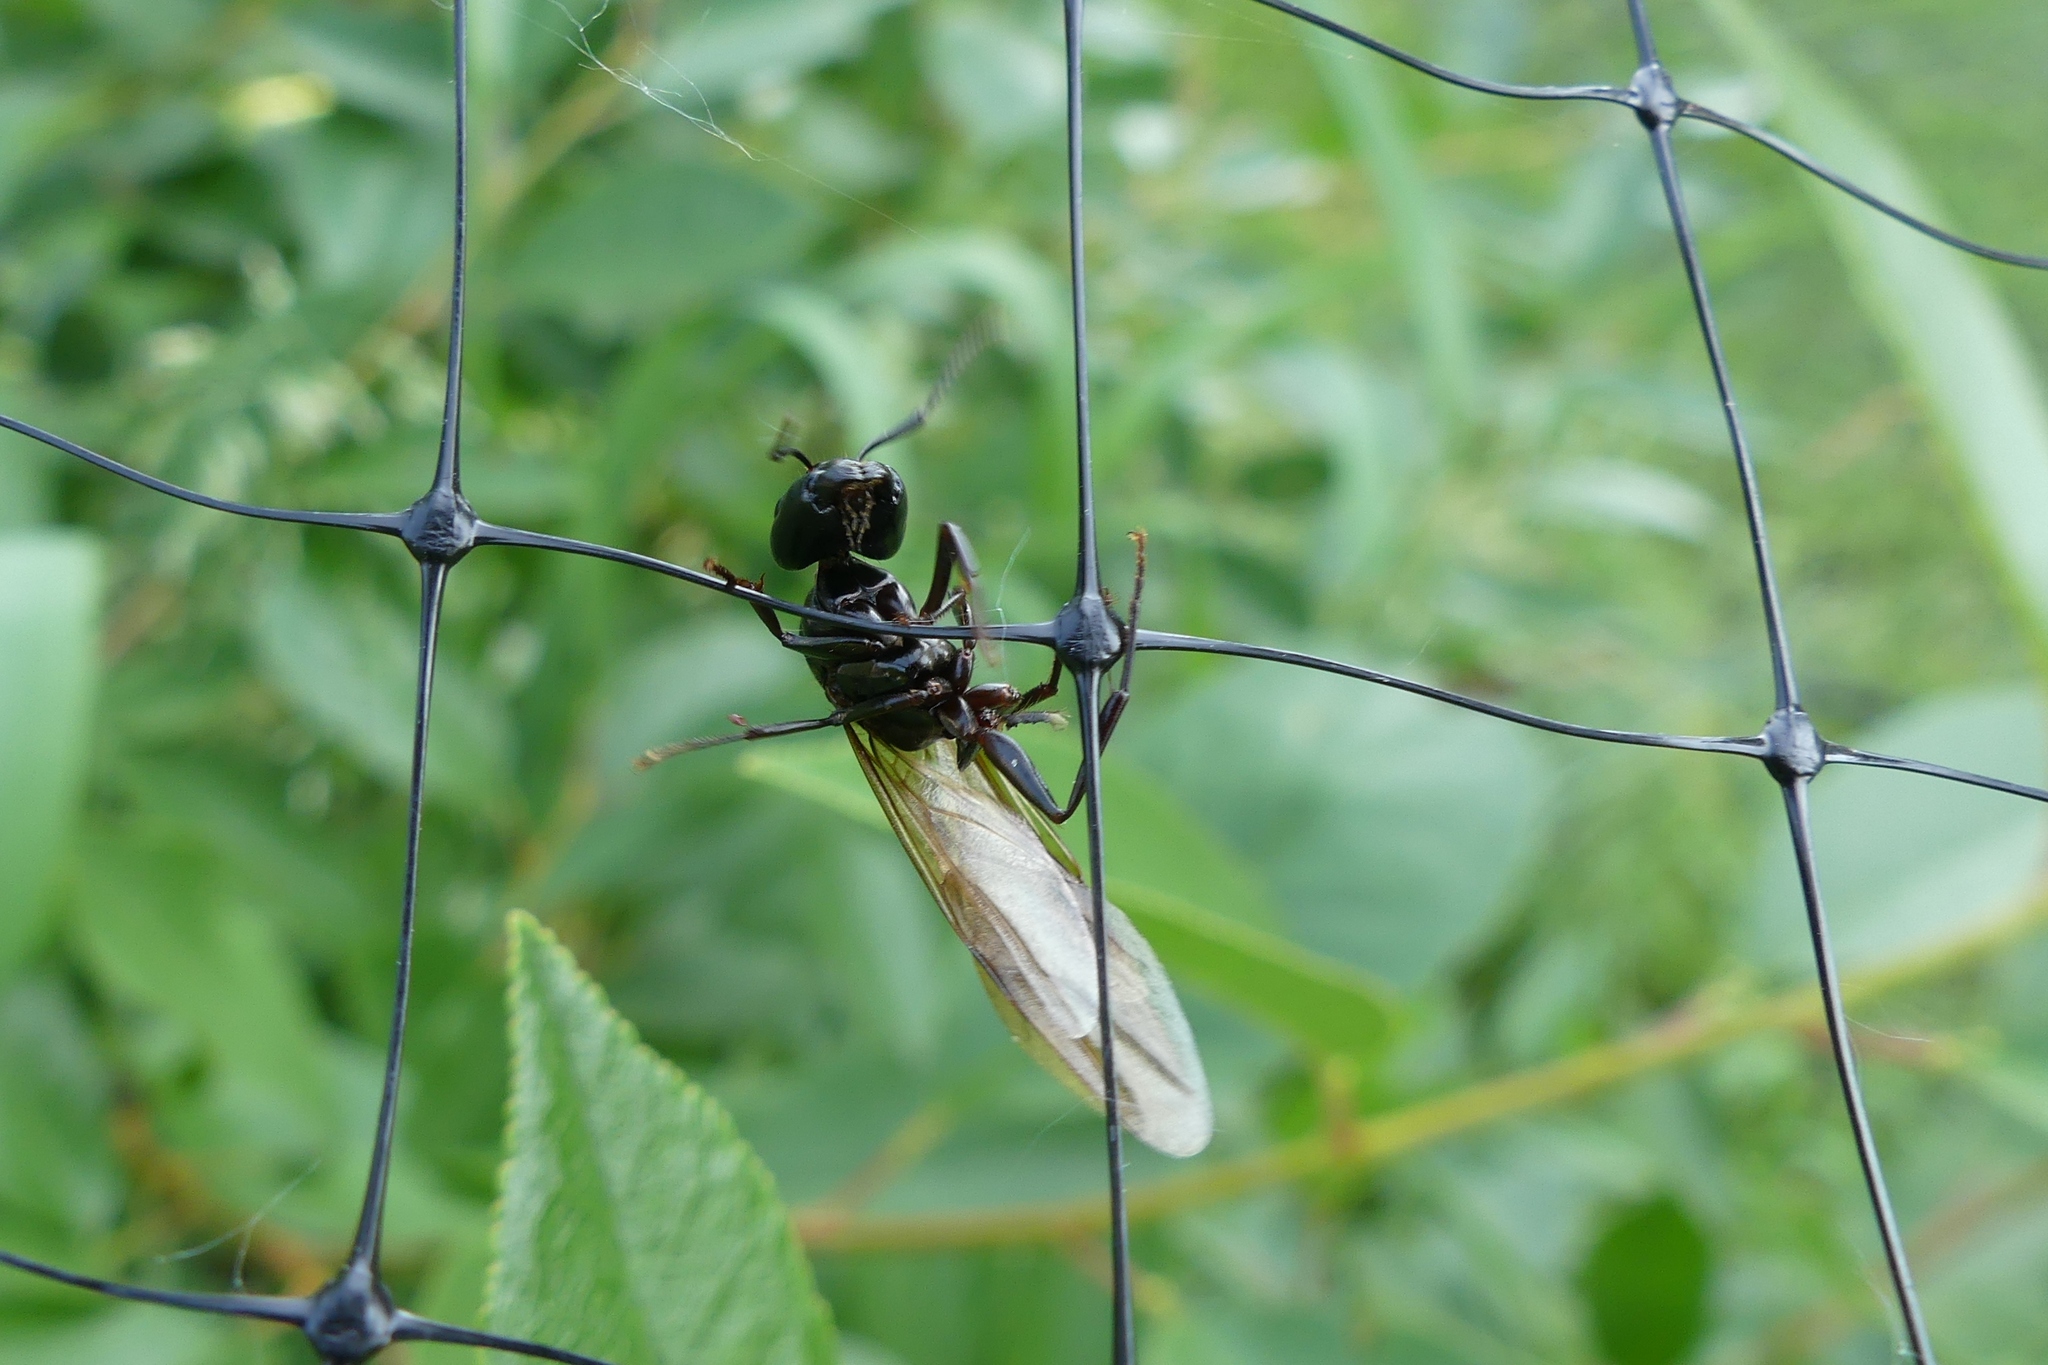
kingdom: Animalia
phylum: Arthropoda
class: Insecta
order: Hymenoptera
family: Formicidae
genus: Camponotus
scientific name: Camponotus pennsylvanicus
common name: Black carpenter ant
